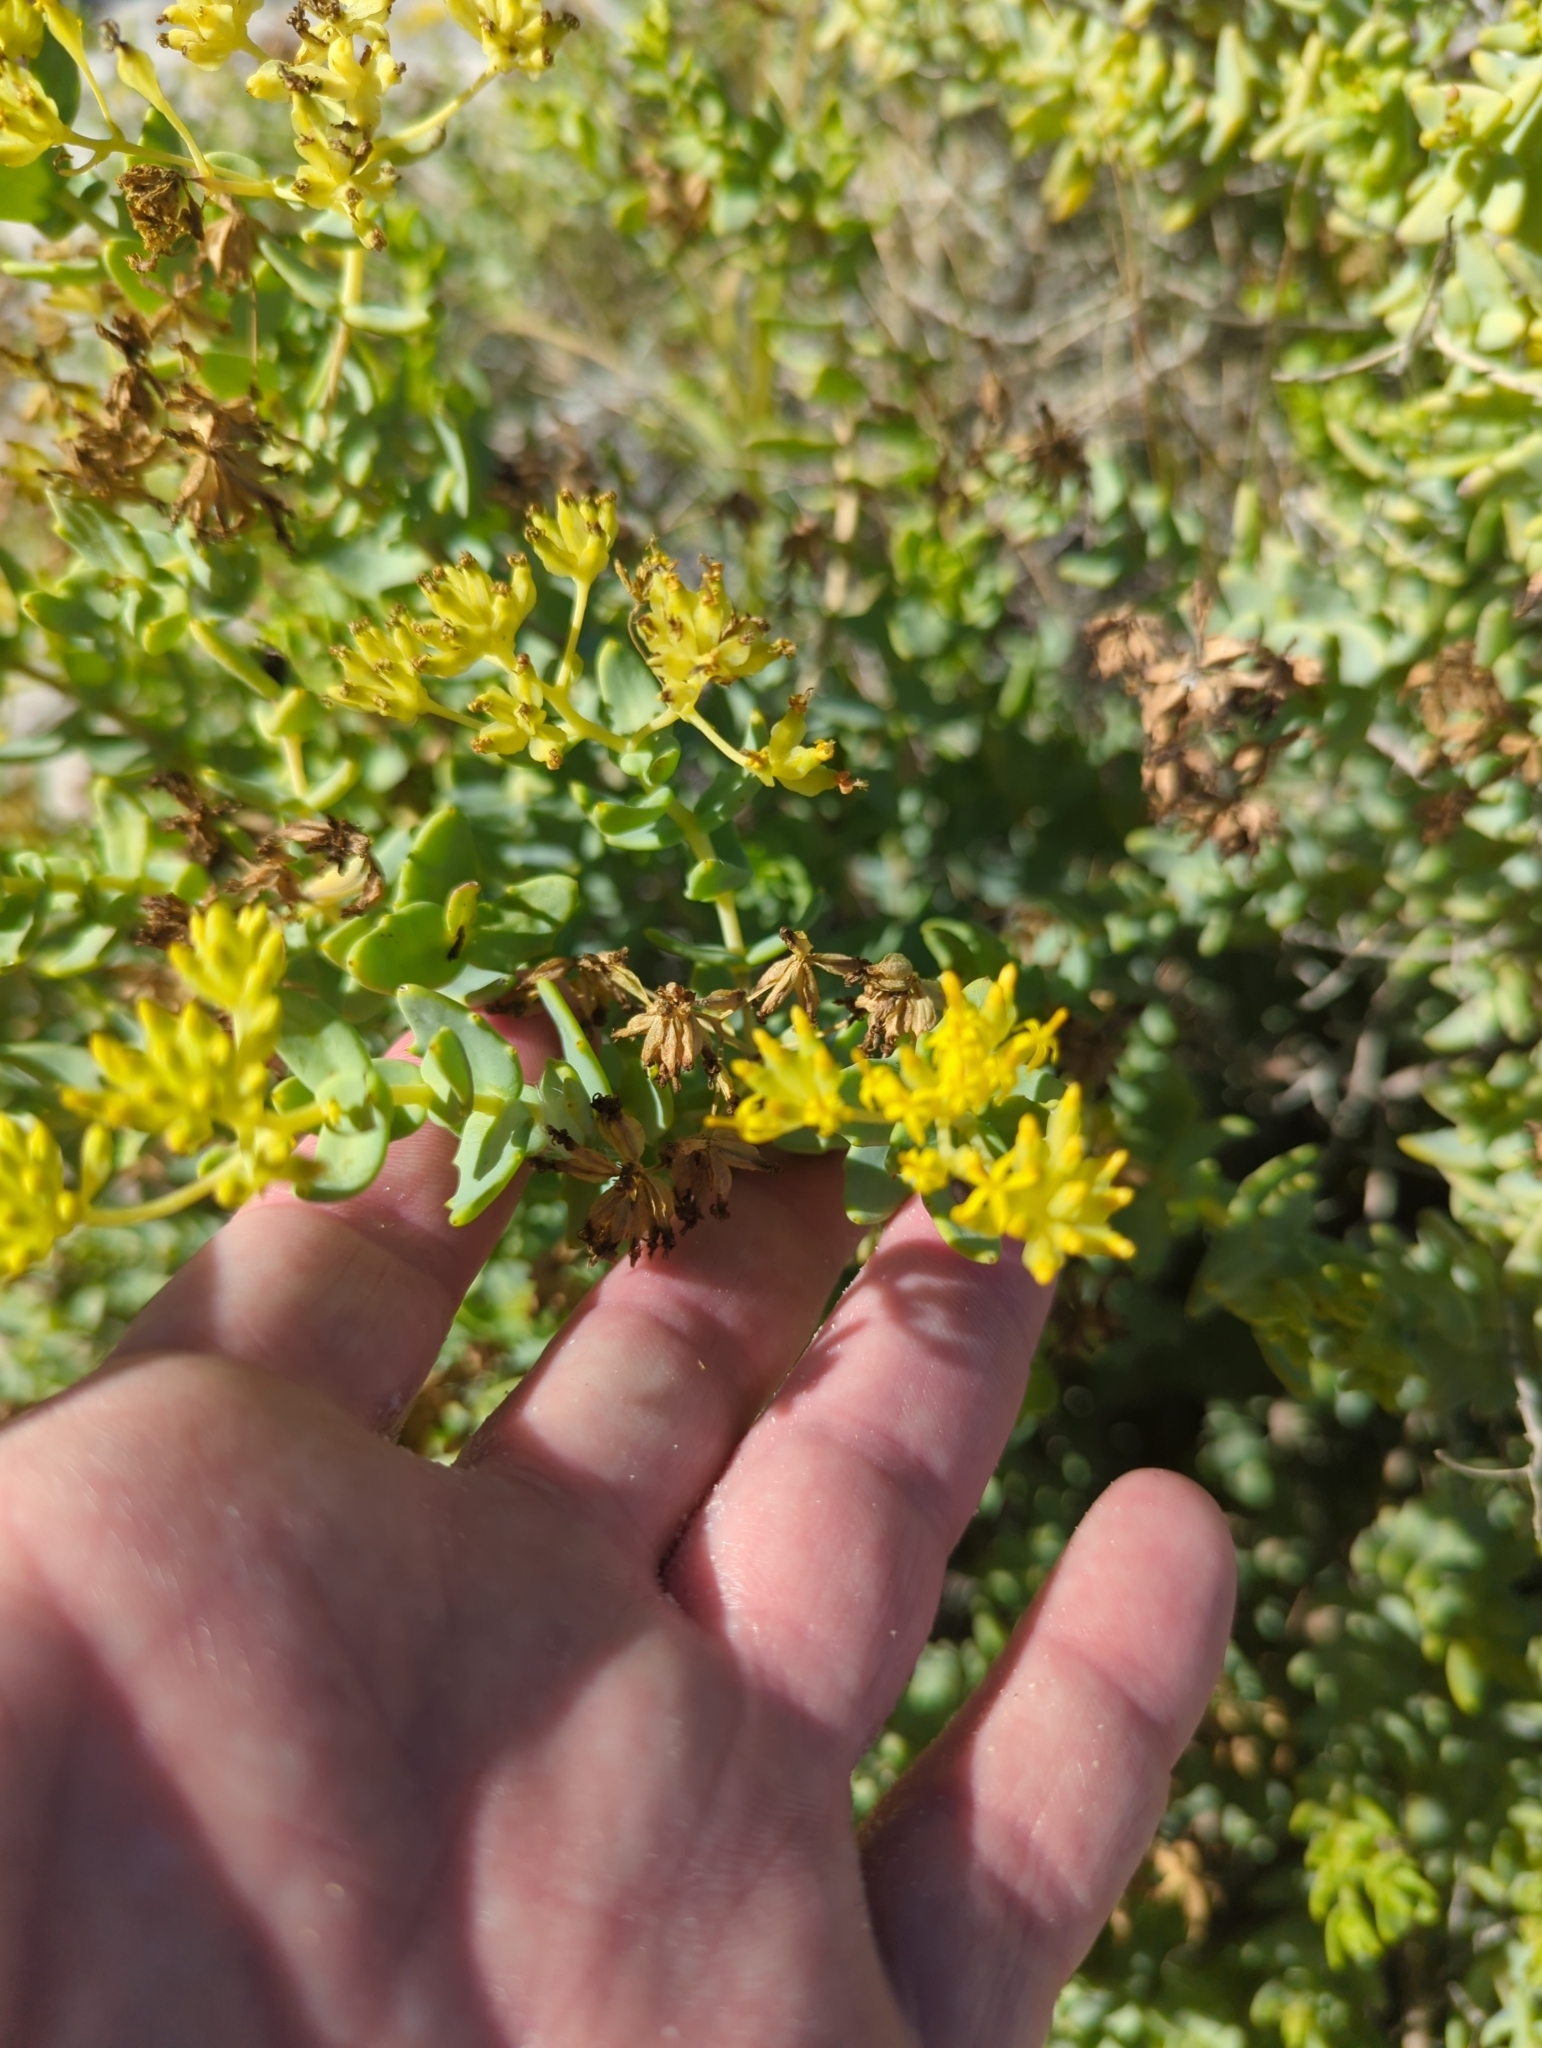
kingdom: Plantae
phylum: Tracheophyta
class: Magnoliopsida
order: Asterales
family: Asteraceae
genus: Coulterella
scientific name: Coulterella capitata
